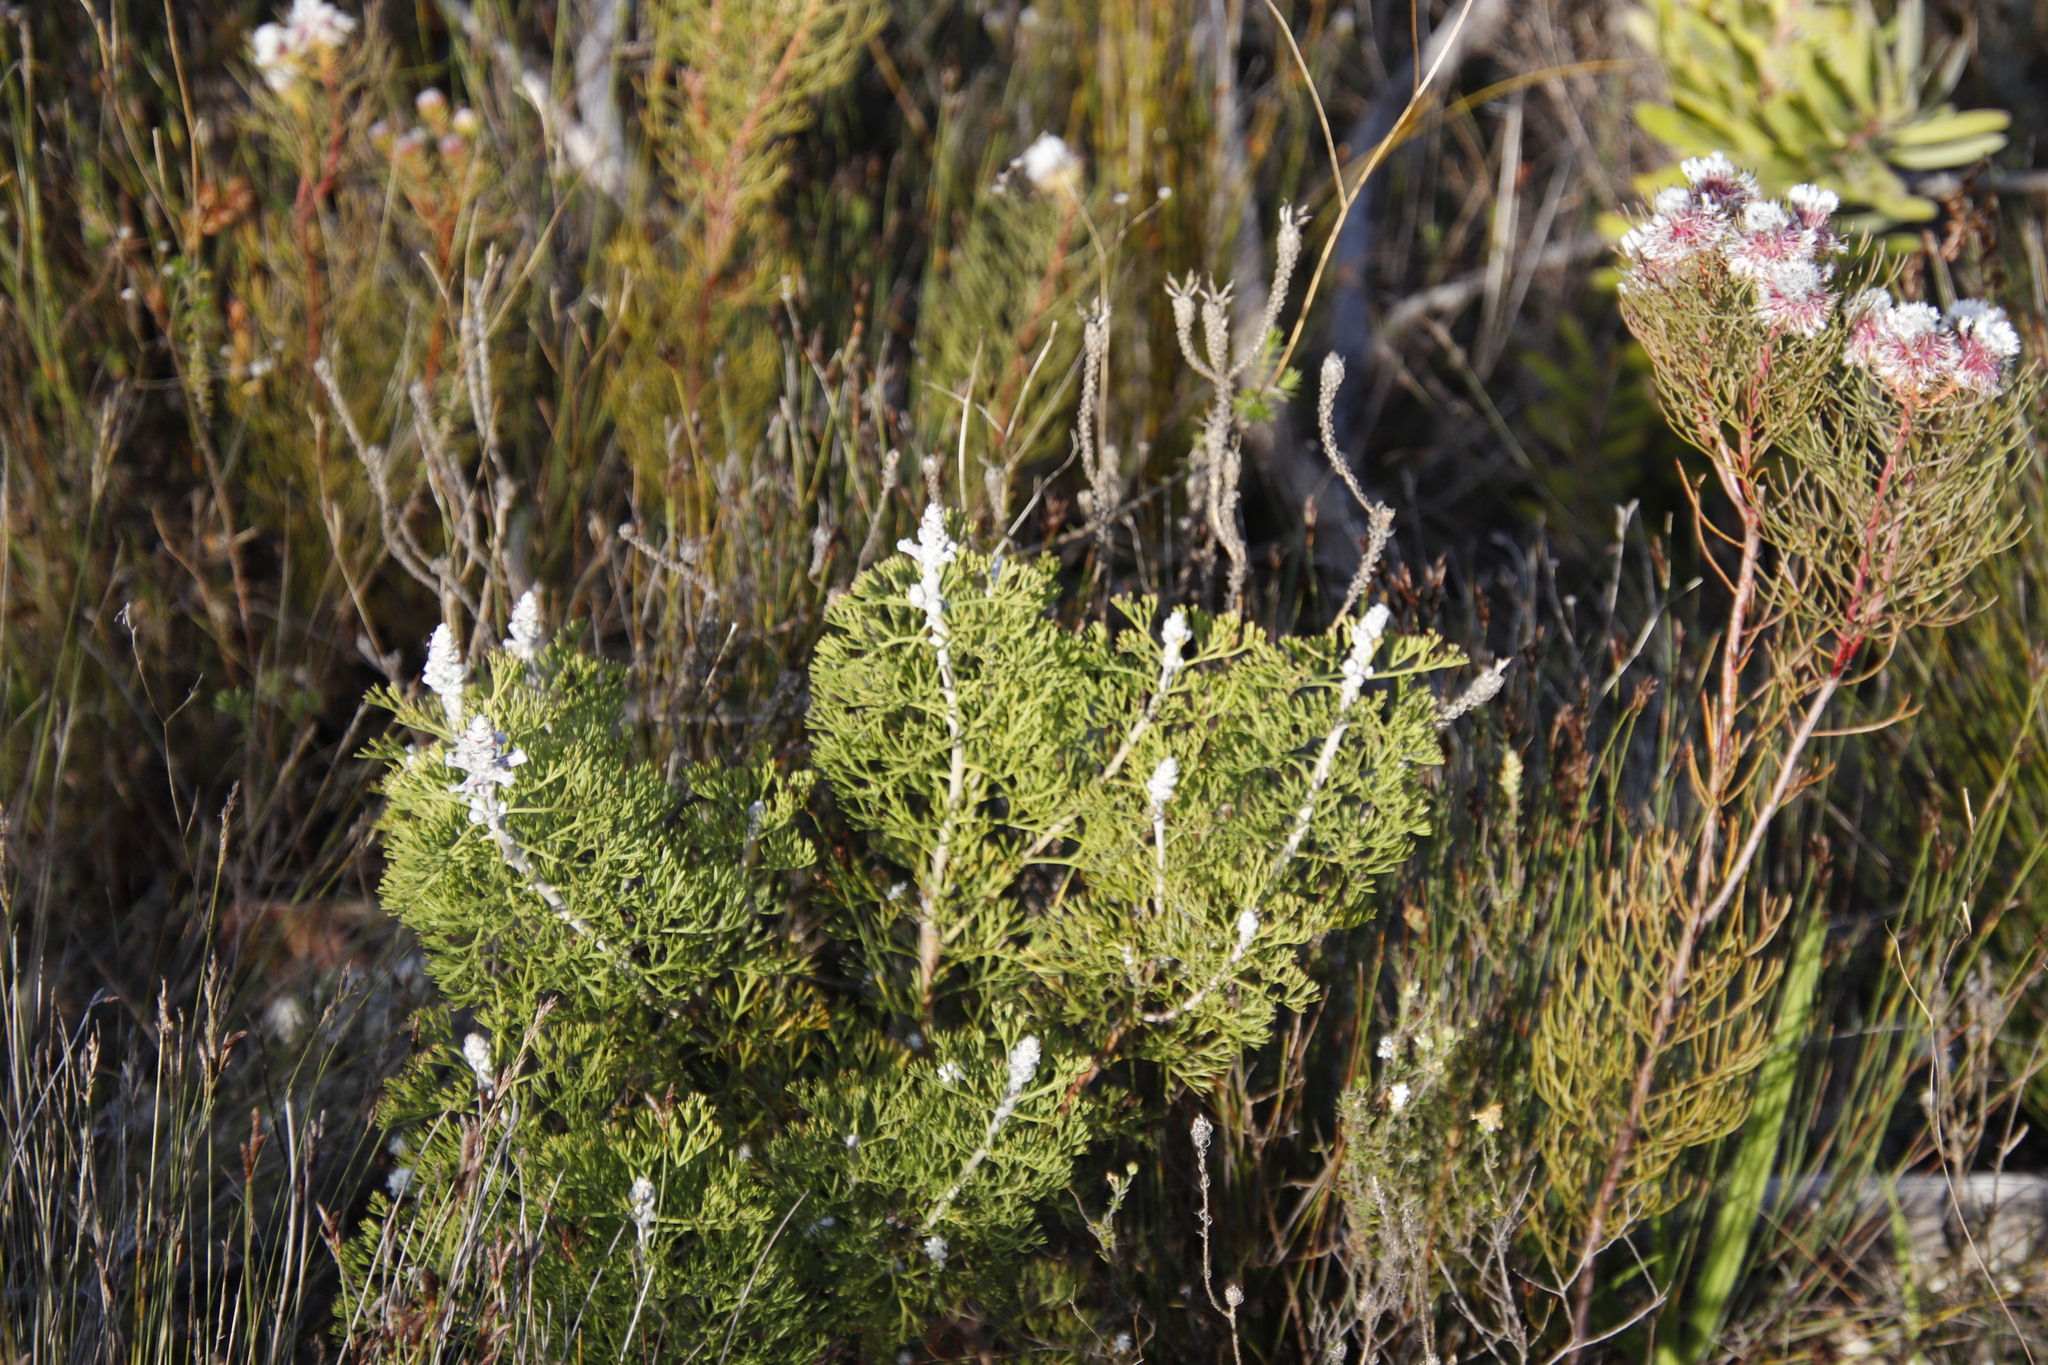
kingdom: Plantae
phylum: Tracheophyta
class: Magnoliopsida
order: Proteales
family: Proteaceae
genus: Paranomus
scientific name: Paranomus bolusii
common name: Overberg sceptre
